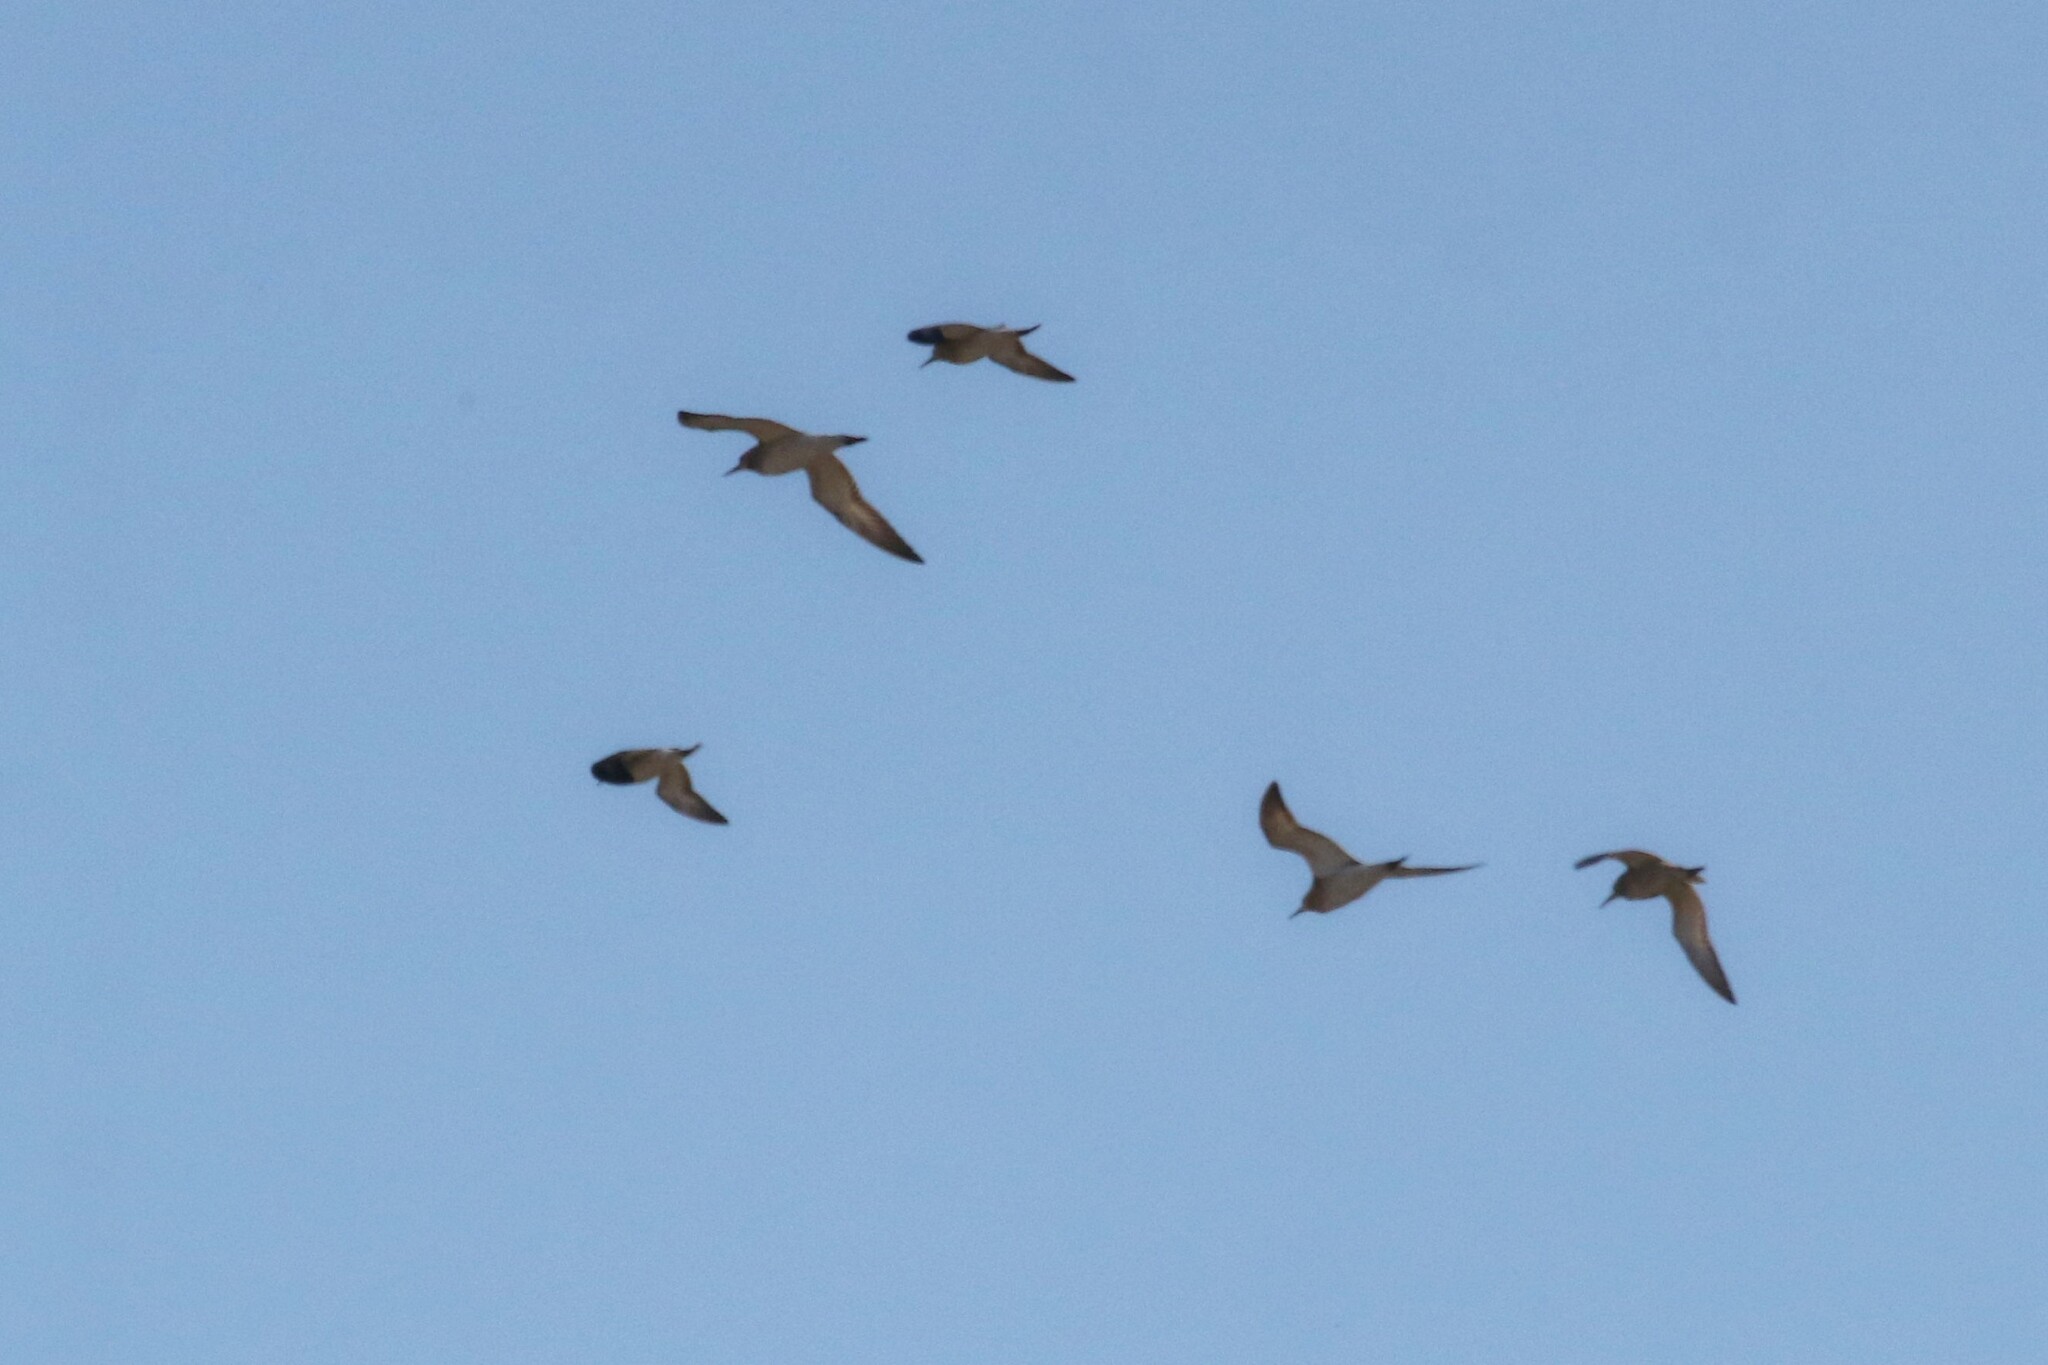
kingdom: Animalia
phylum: Chordata
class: Aves
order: Charadriiformes
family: Scolopacidae
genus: Calidris
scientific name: Calidris pugnax
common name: Ruff
